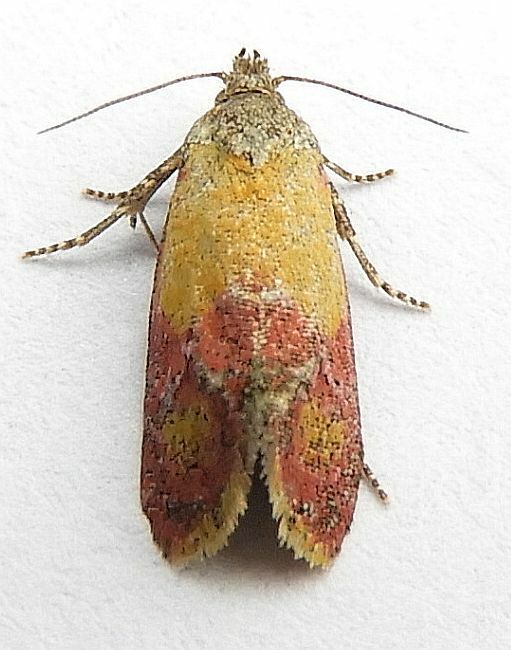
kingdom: Animalia
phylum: Arthropoda
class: Insecta
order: Lepidoptera
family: Tortricidae
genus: Conchylis
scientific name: Conchylis oenotherana
